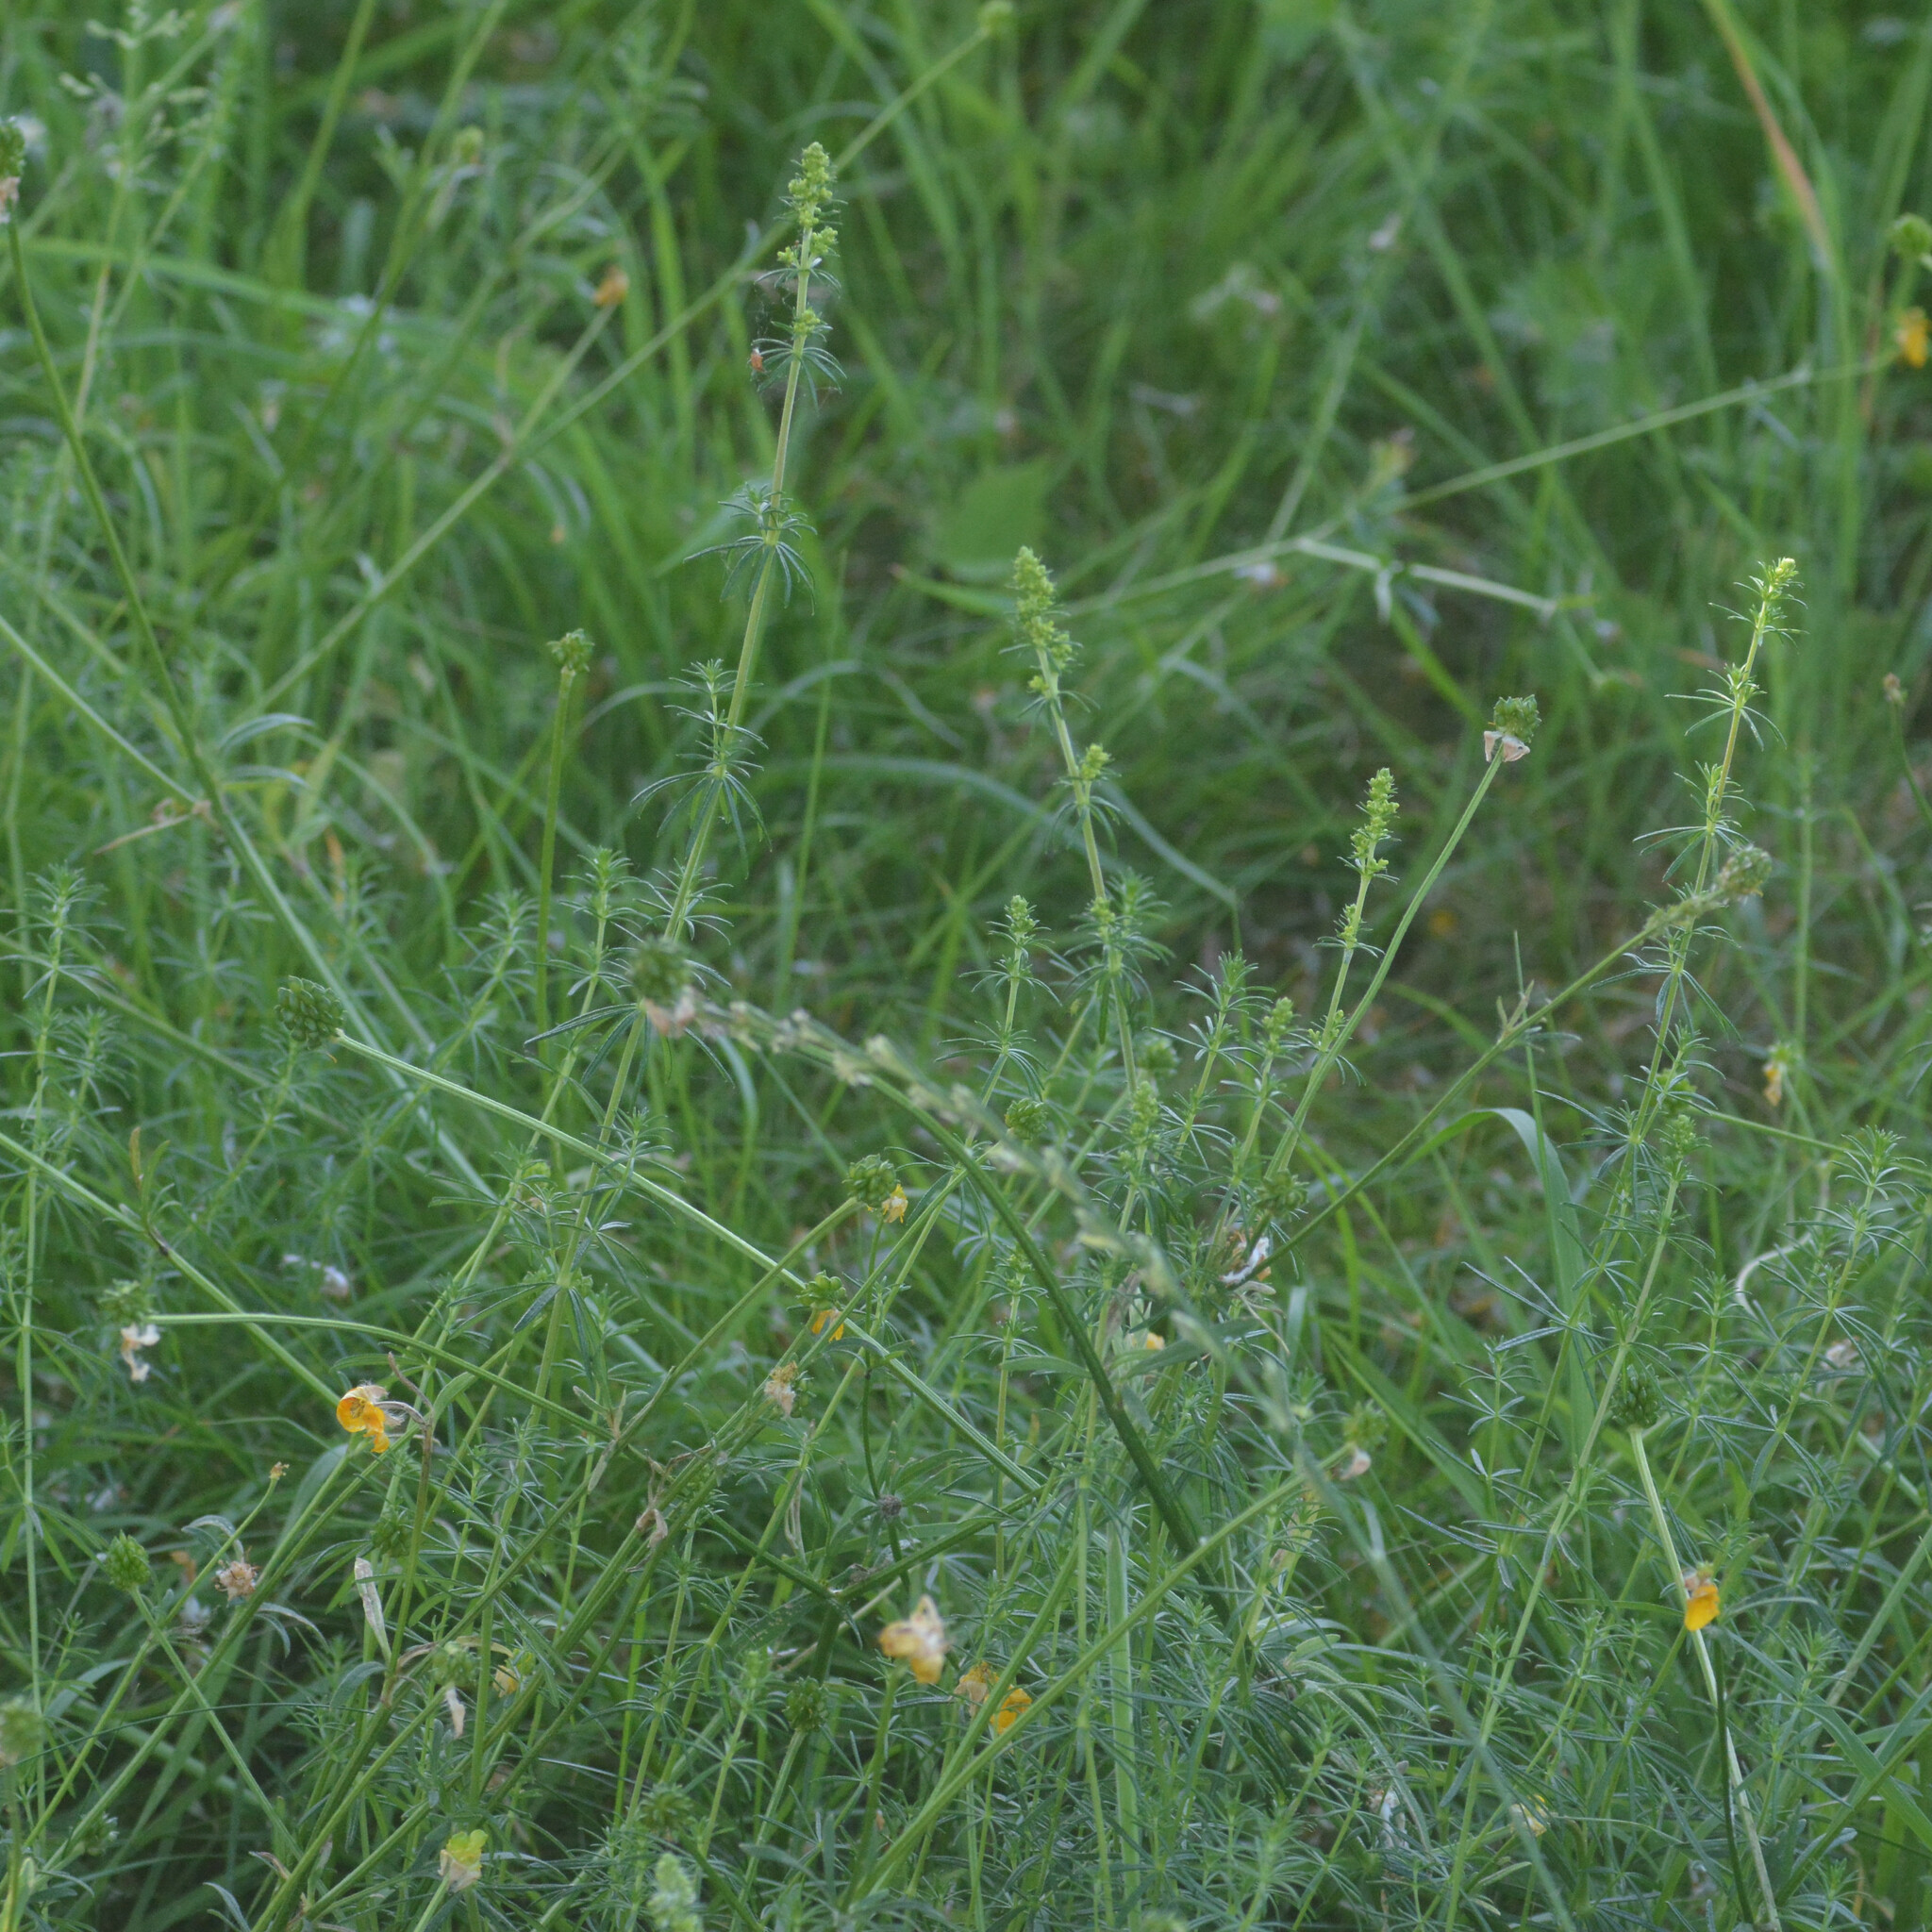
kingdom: Plantae
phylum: Tracheophyta
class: Magnoliopsida
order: Gentianales
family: Rubiaceae
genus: Galium
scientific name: Galium verum
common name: Lady's bedstraw
